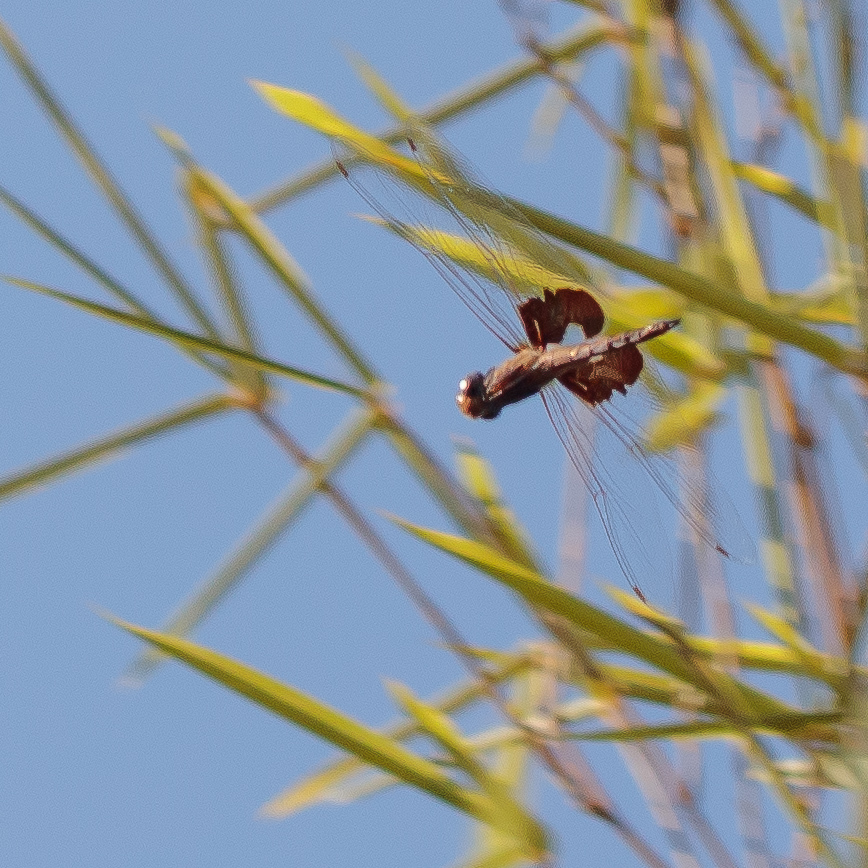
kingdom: Animalia
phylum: Arthropoda
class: Insecta
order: Odonata
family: Libellulidae
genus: Tramea
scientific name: Tramea onusta
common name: Red saddlebags
